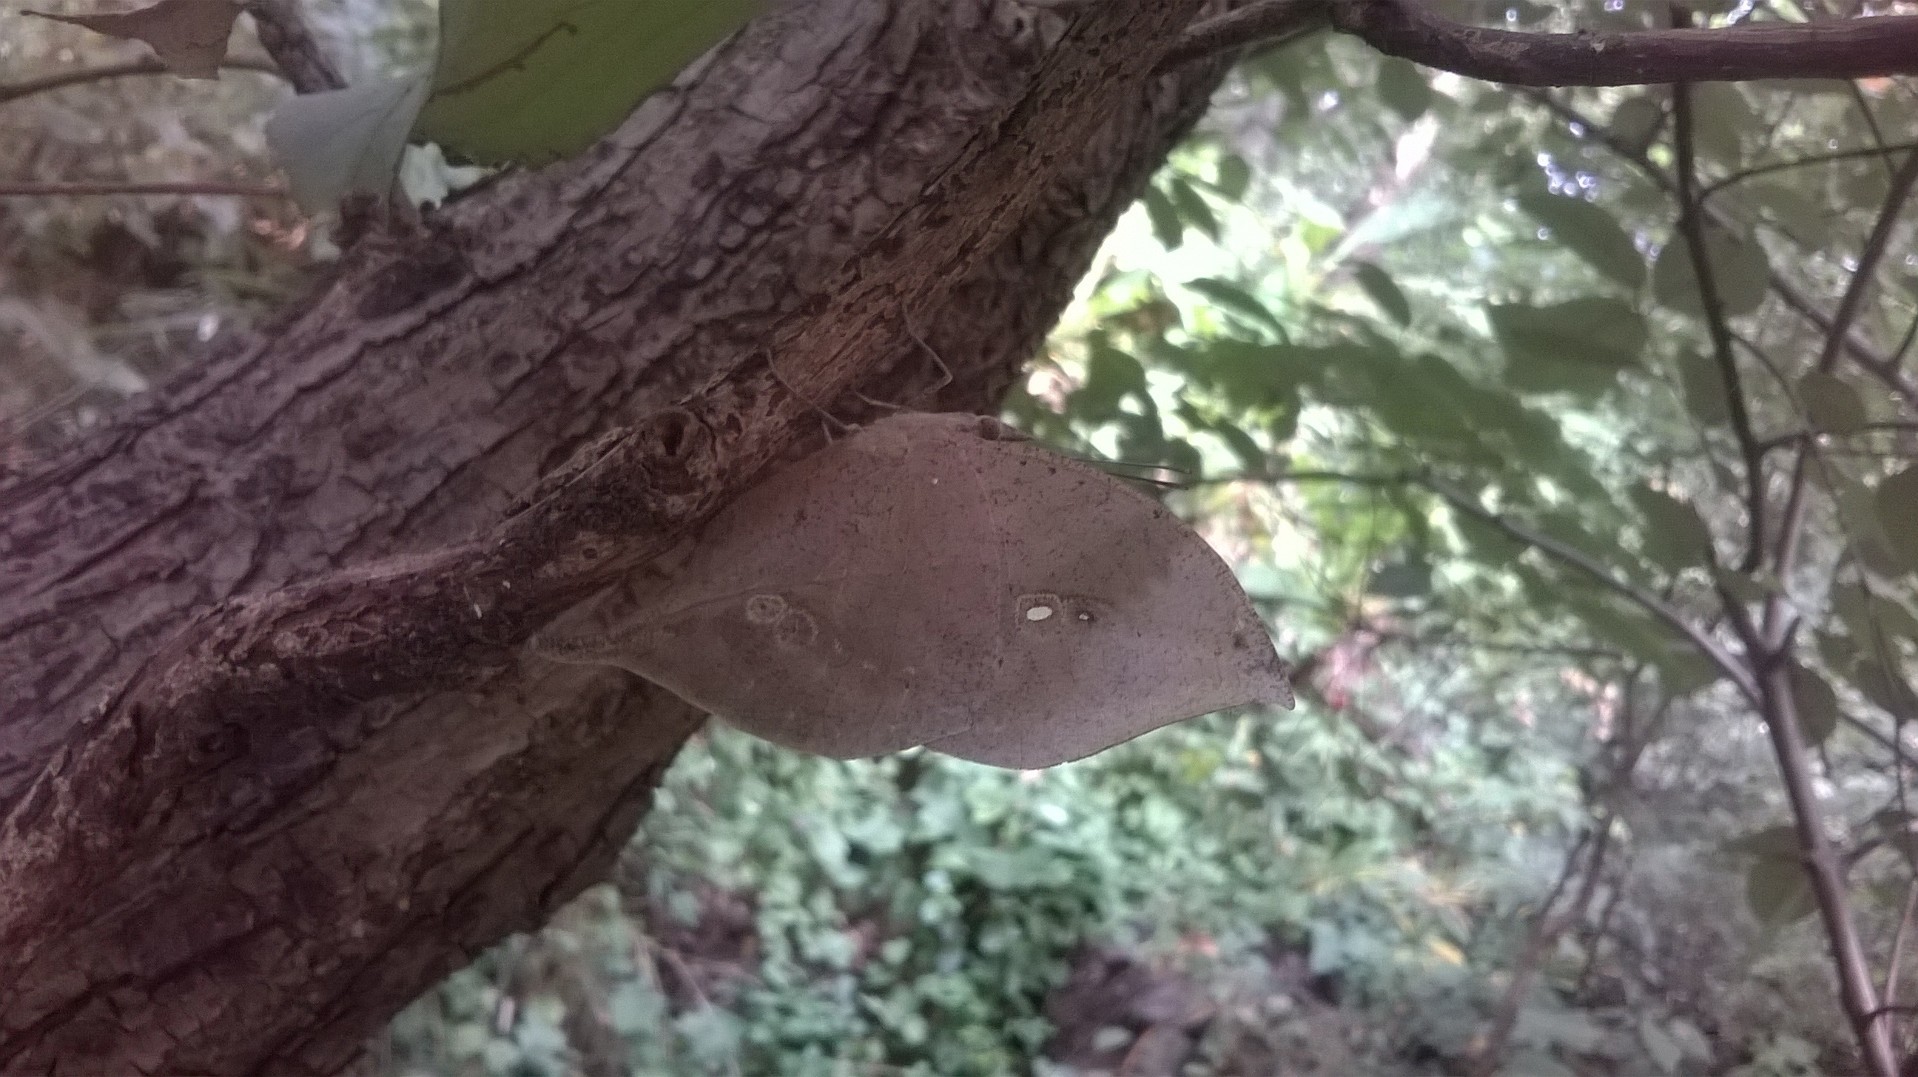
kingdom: Animalia
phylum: Arthropoda
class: Insecta
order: Lepidoptera
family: Nymphalidae
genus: Kallima
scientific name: Kallima horsfieldii
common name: Sahyadri blue oakleaf
